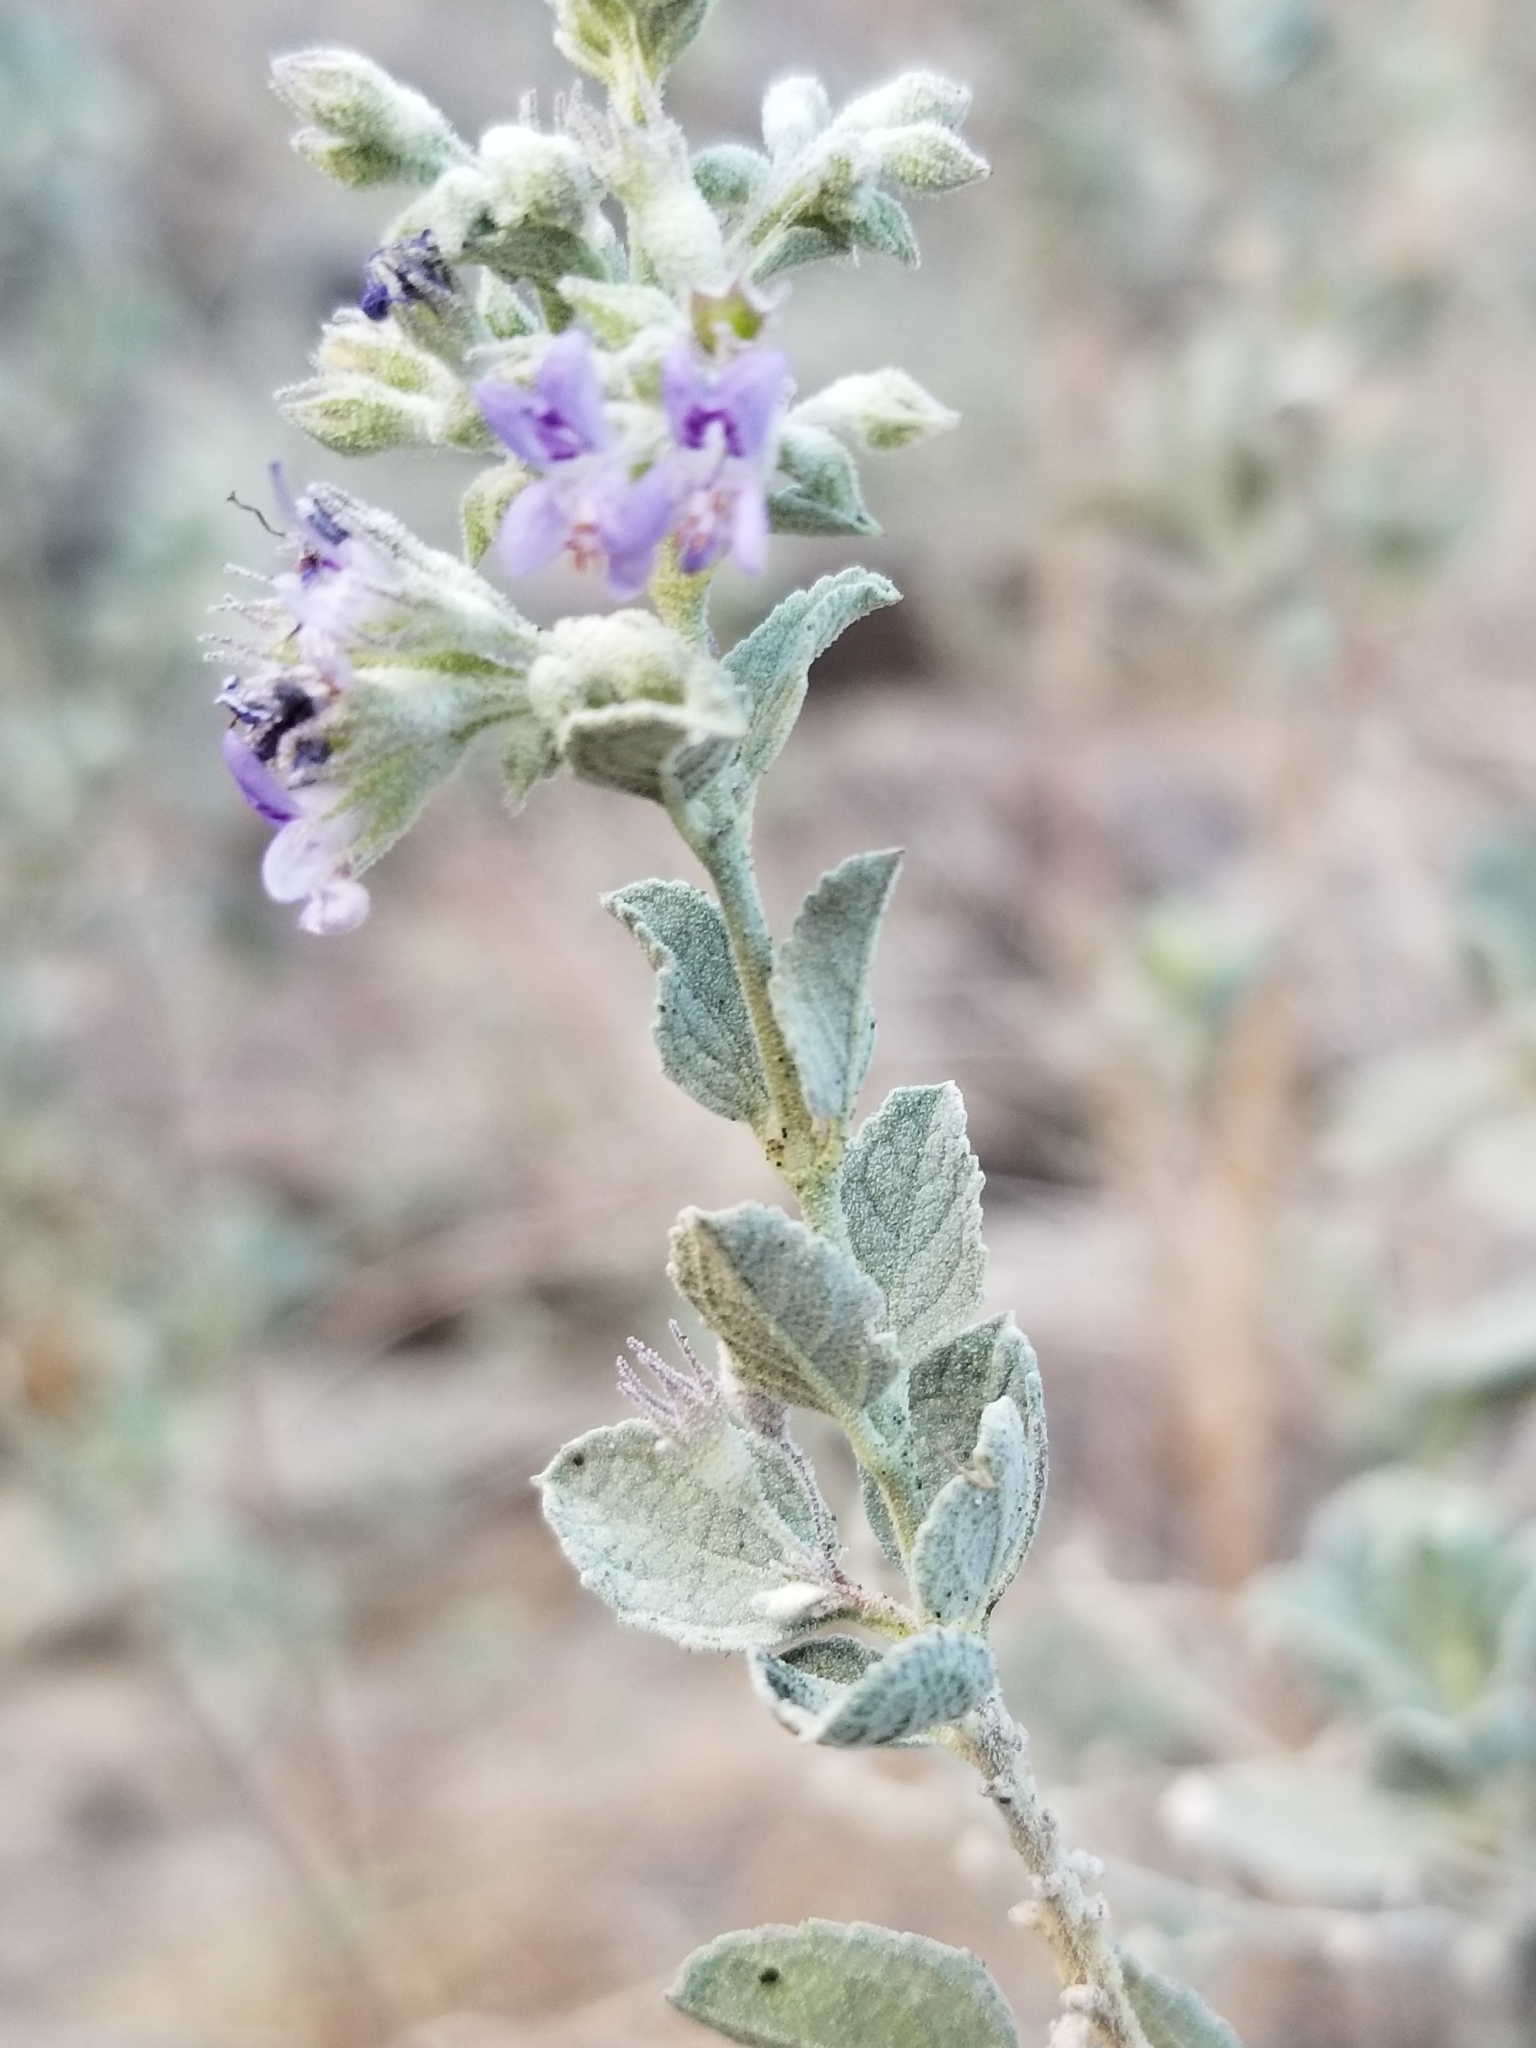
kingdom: Plantae
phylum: Tracheophyta
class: Magnoliopsida
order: Lamiales
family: Lamiaceae
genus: Condea
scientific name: Condea emoryi
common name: Chia
